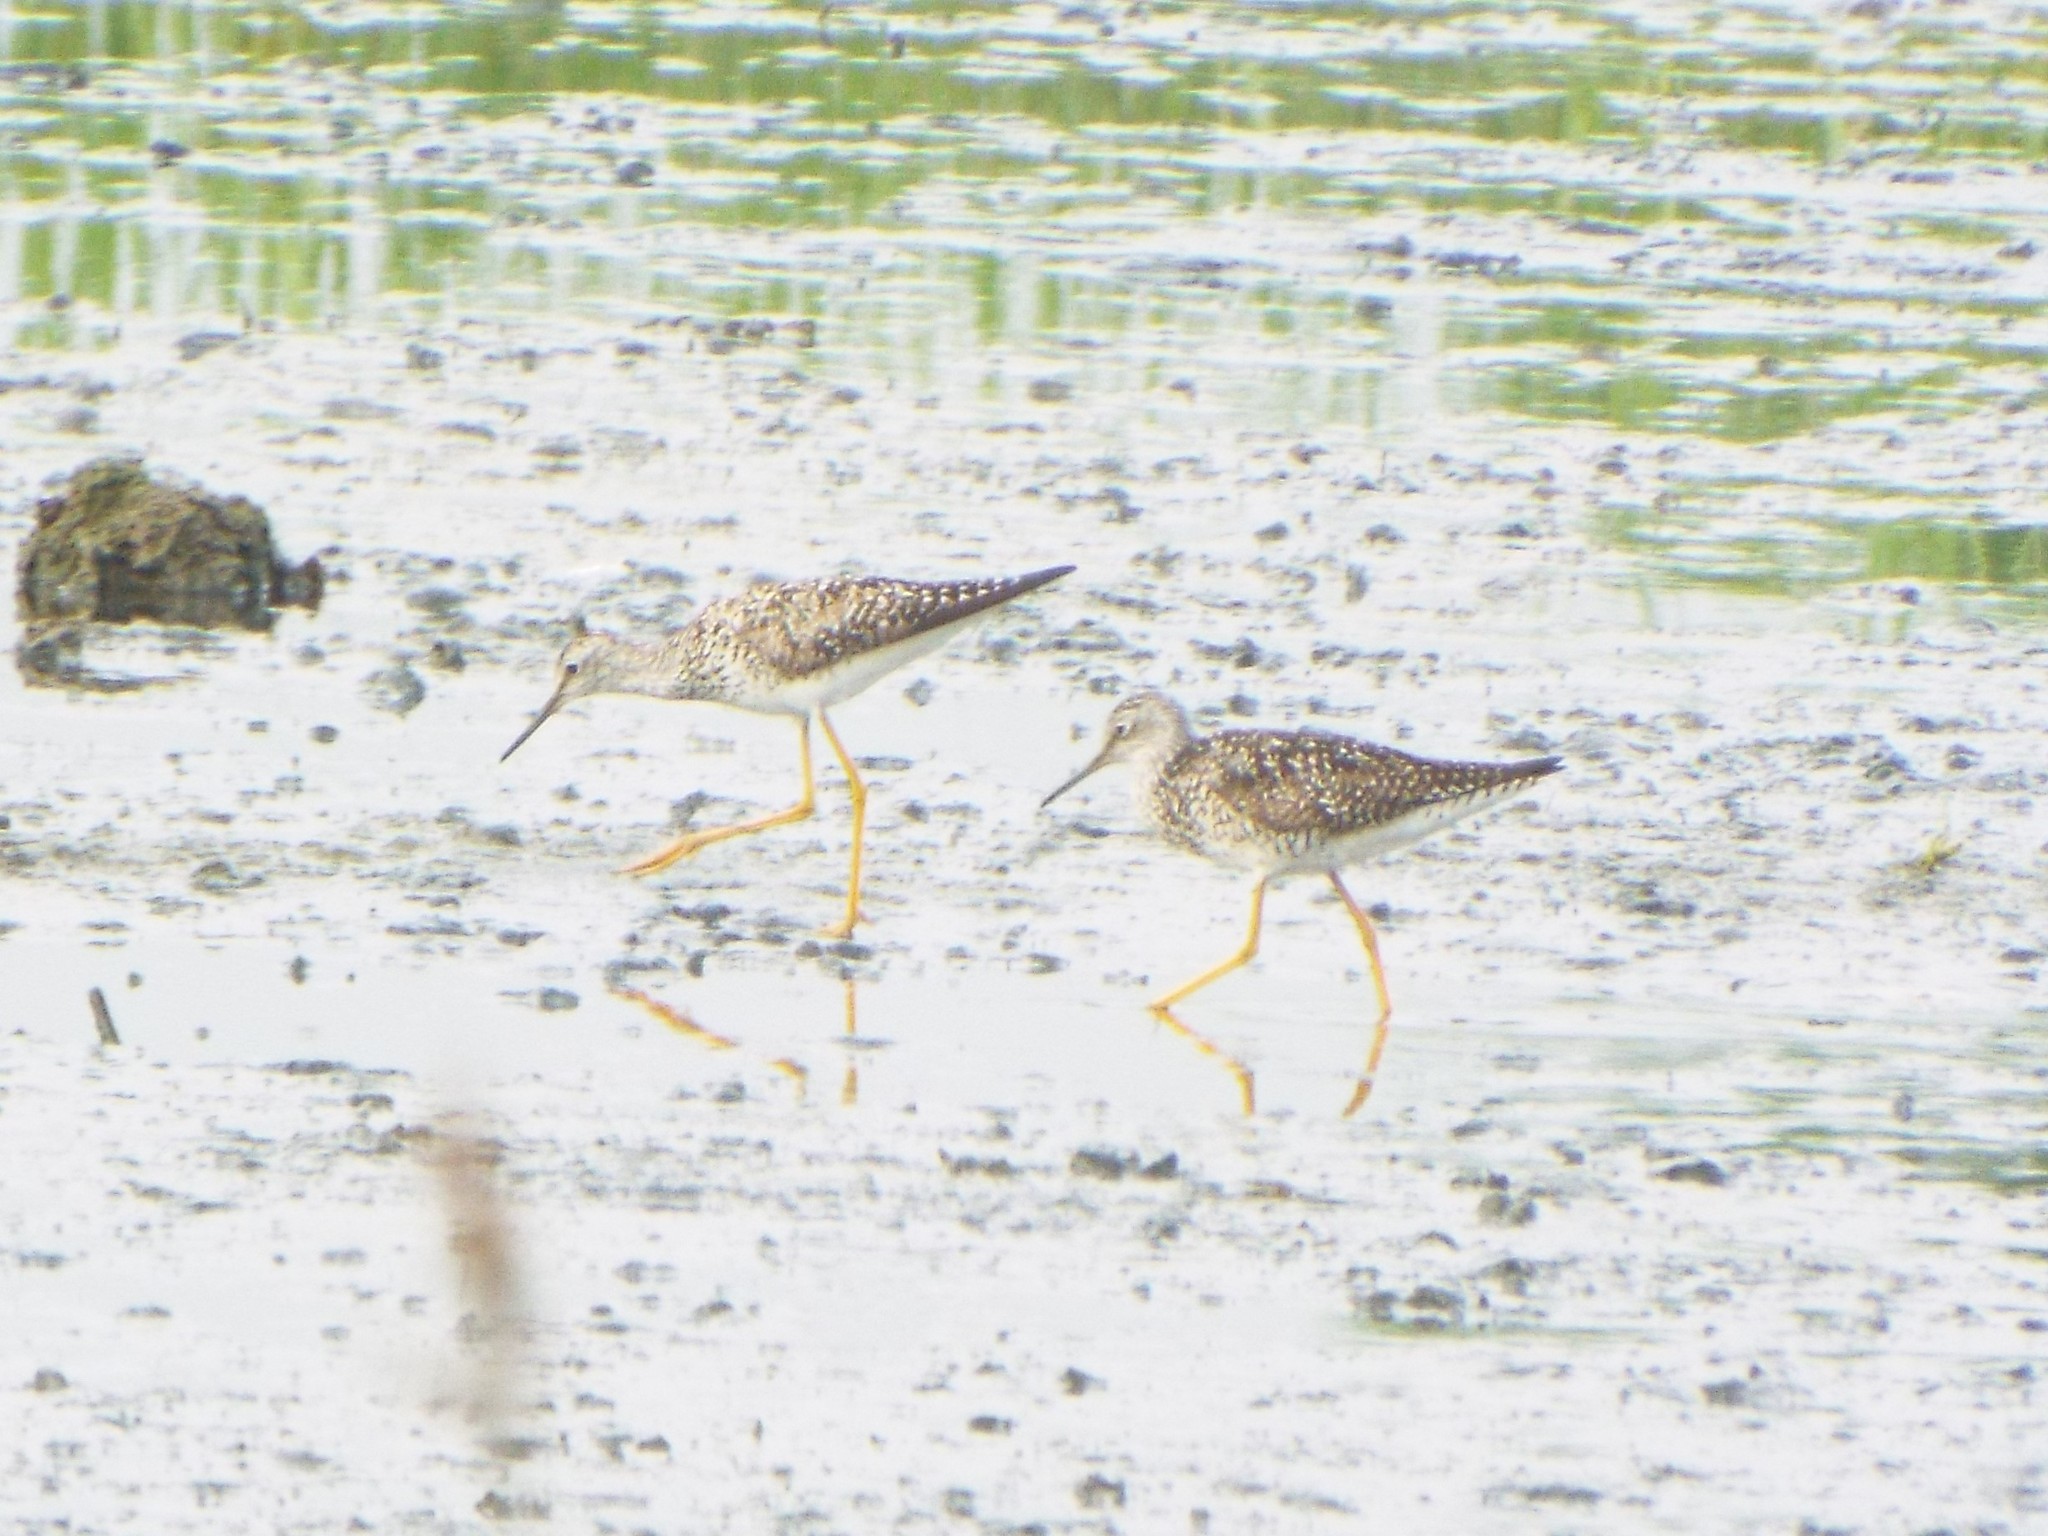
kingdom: Animalia
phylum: Chordata
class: Aves
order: Charadriiformes
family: Scolopacidae
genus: Tringa
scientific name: Tringa flavipes
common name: Lesser yellowlegs
